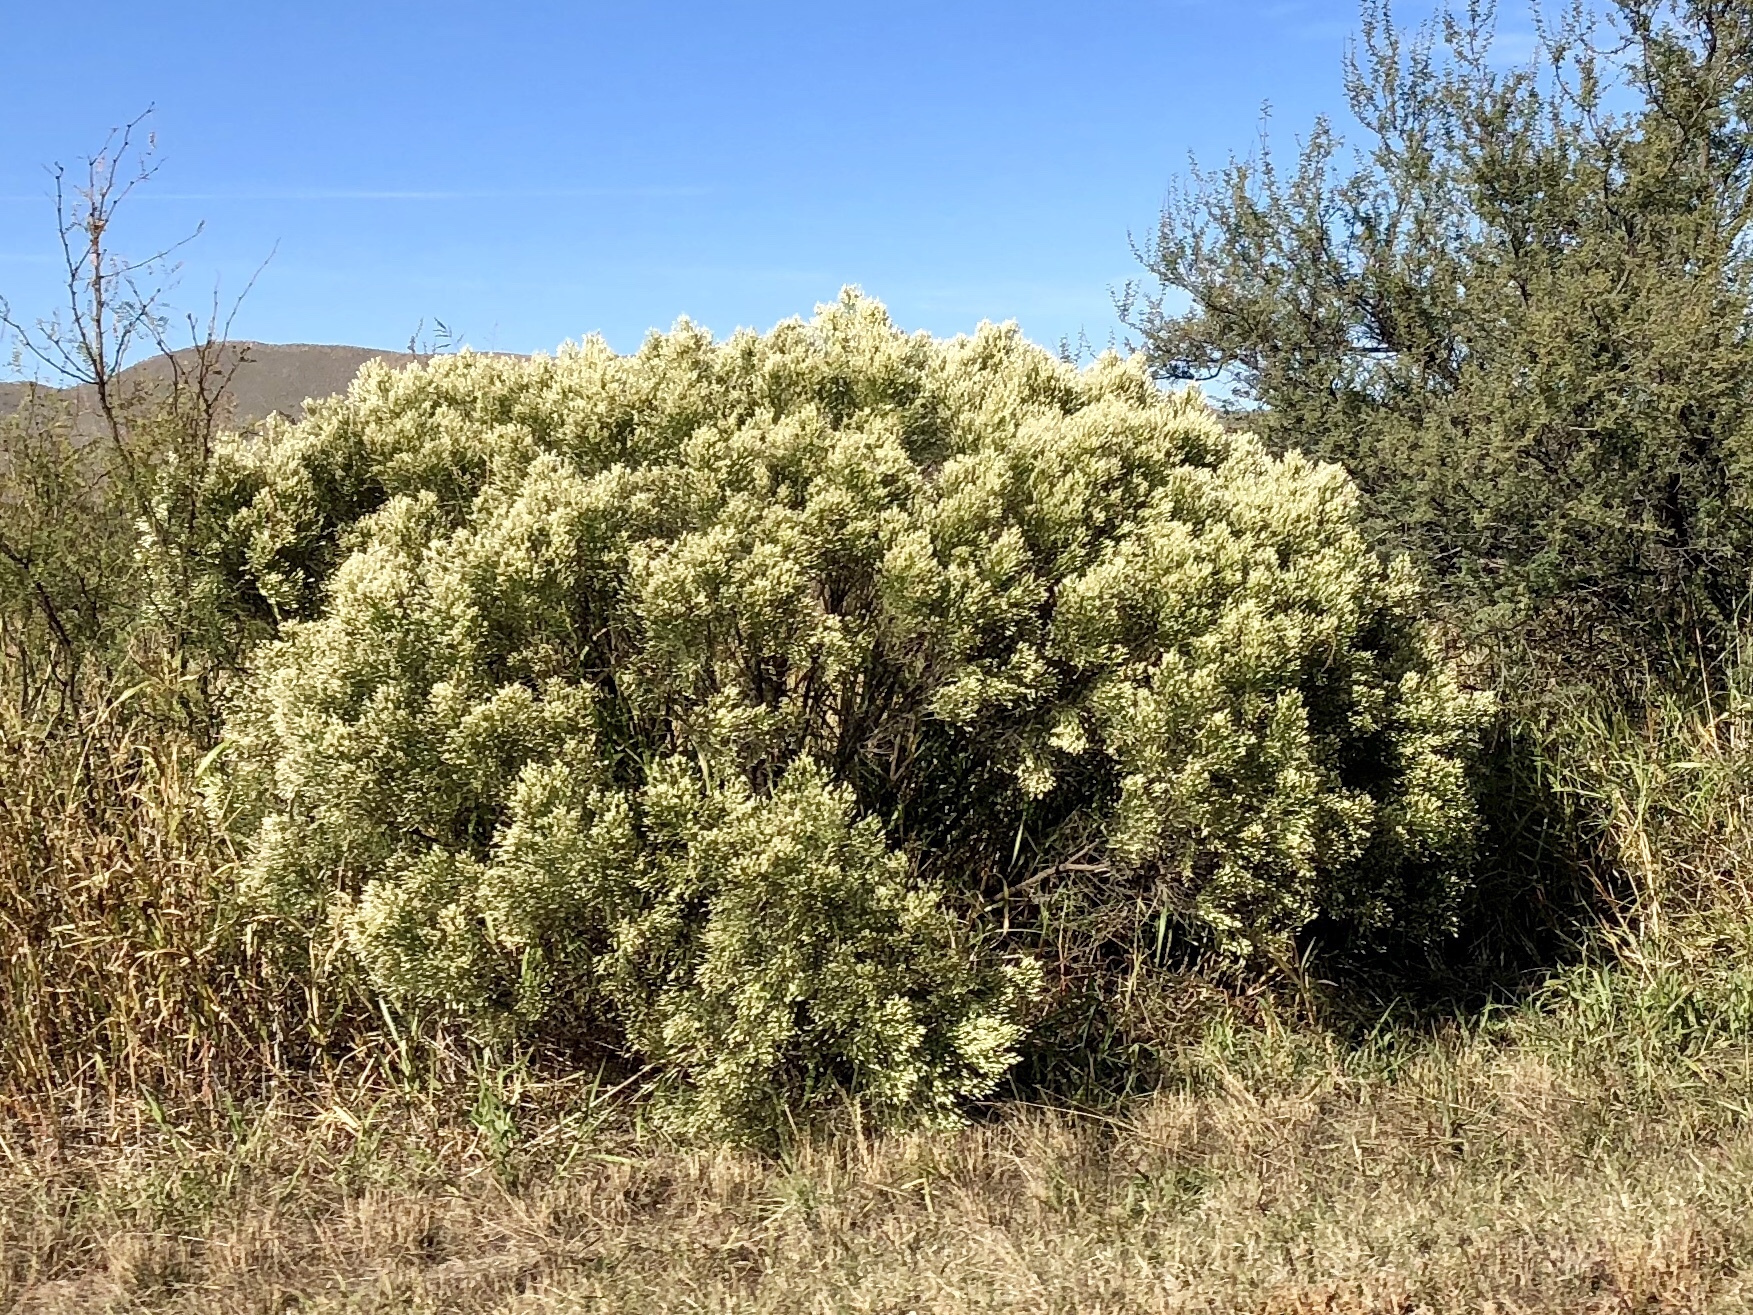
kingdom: Plantae
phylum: Tracheophyta
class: Magnoliopsida
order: Asterales
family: Asteraceae
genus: Baccharis
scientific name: Baccharis sarothroides
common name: Desert-broom
